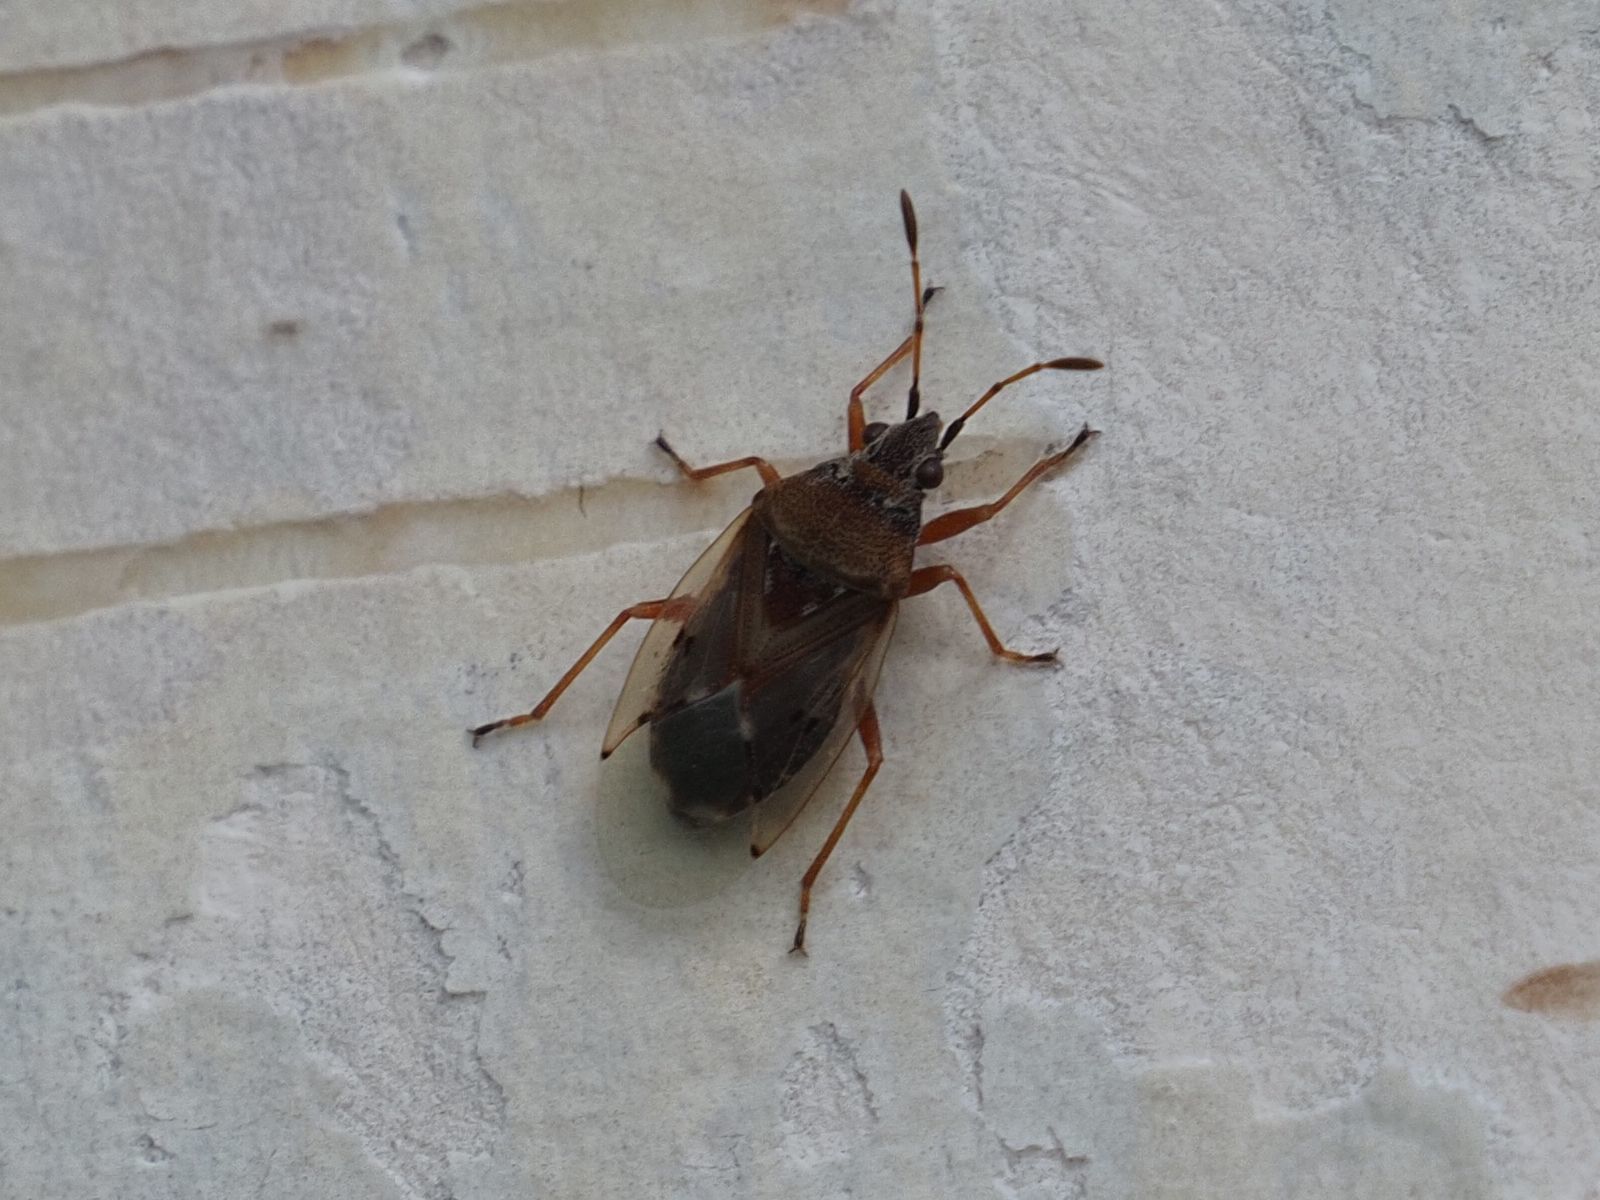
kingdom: Animalia
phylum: Arthropoda
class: Insecta
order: Hemiptera
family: Lygaeidae
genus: Kleidocerys
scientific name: Kleidocerys resedae
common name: Birch catkin bug
